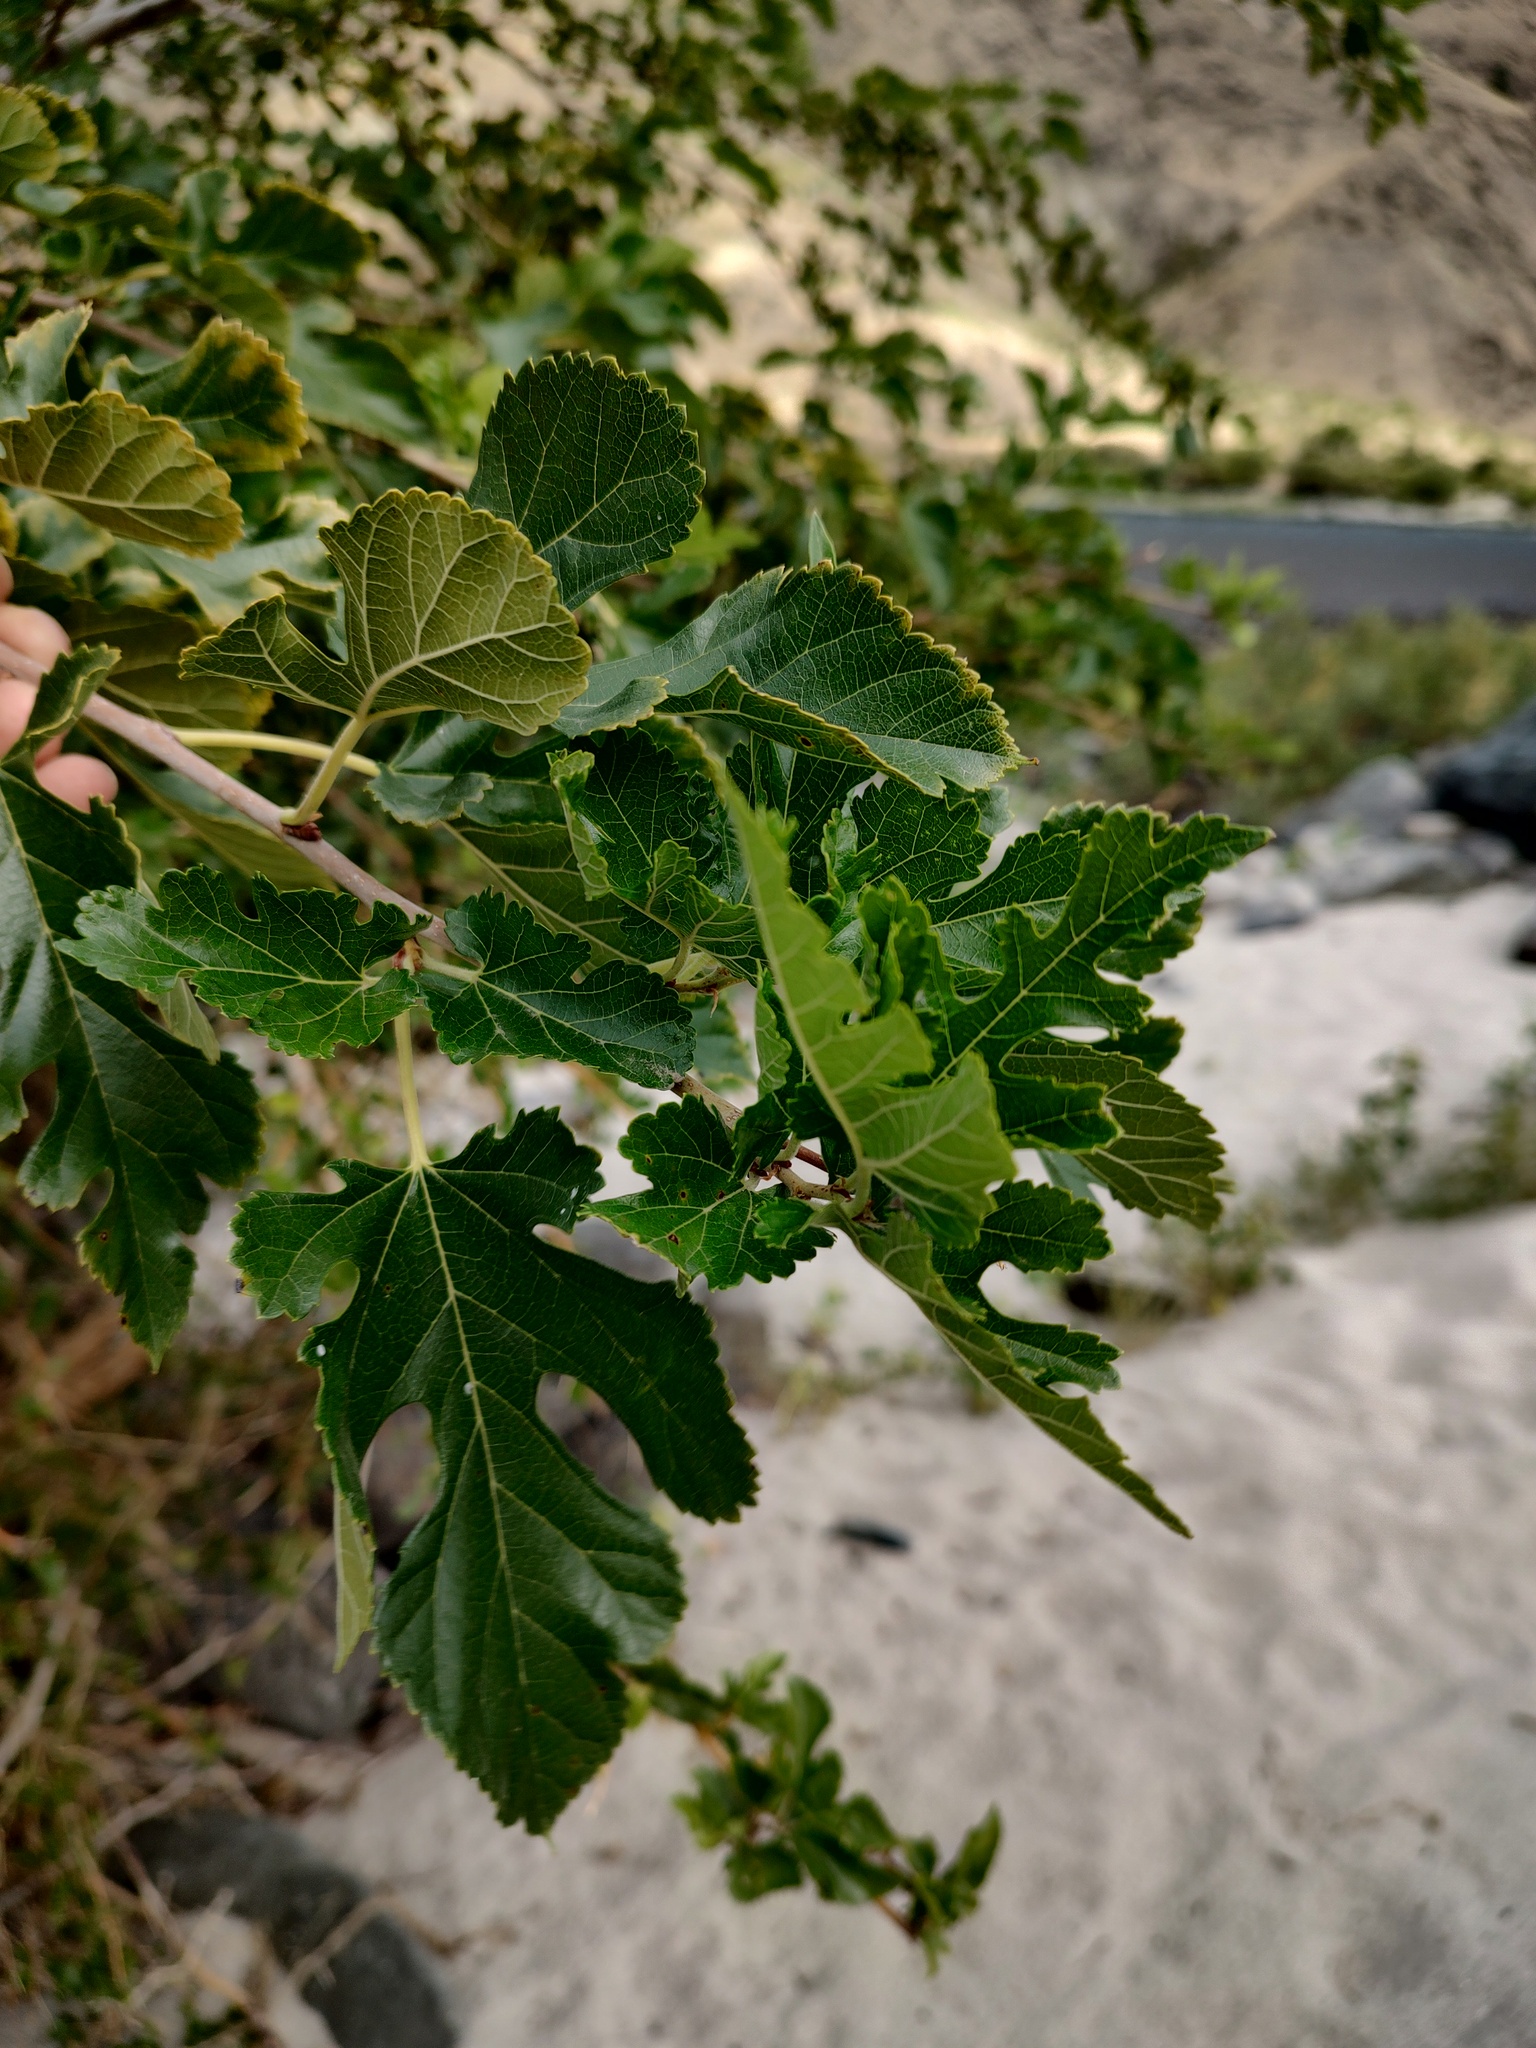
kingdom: Plantae
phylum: Tracheophyta
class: Magnoliopsida
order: Rosales
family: Moraceae
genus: Morus
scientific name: Morus alba
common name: White mulberry
